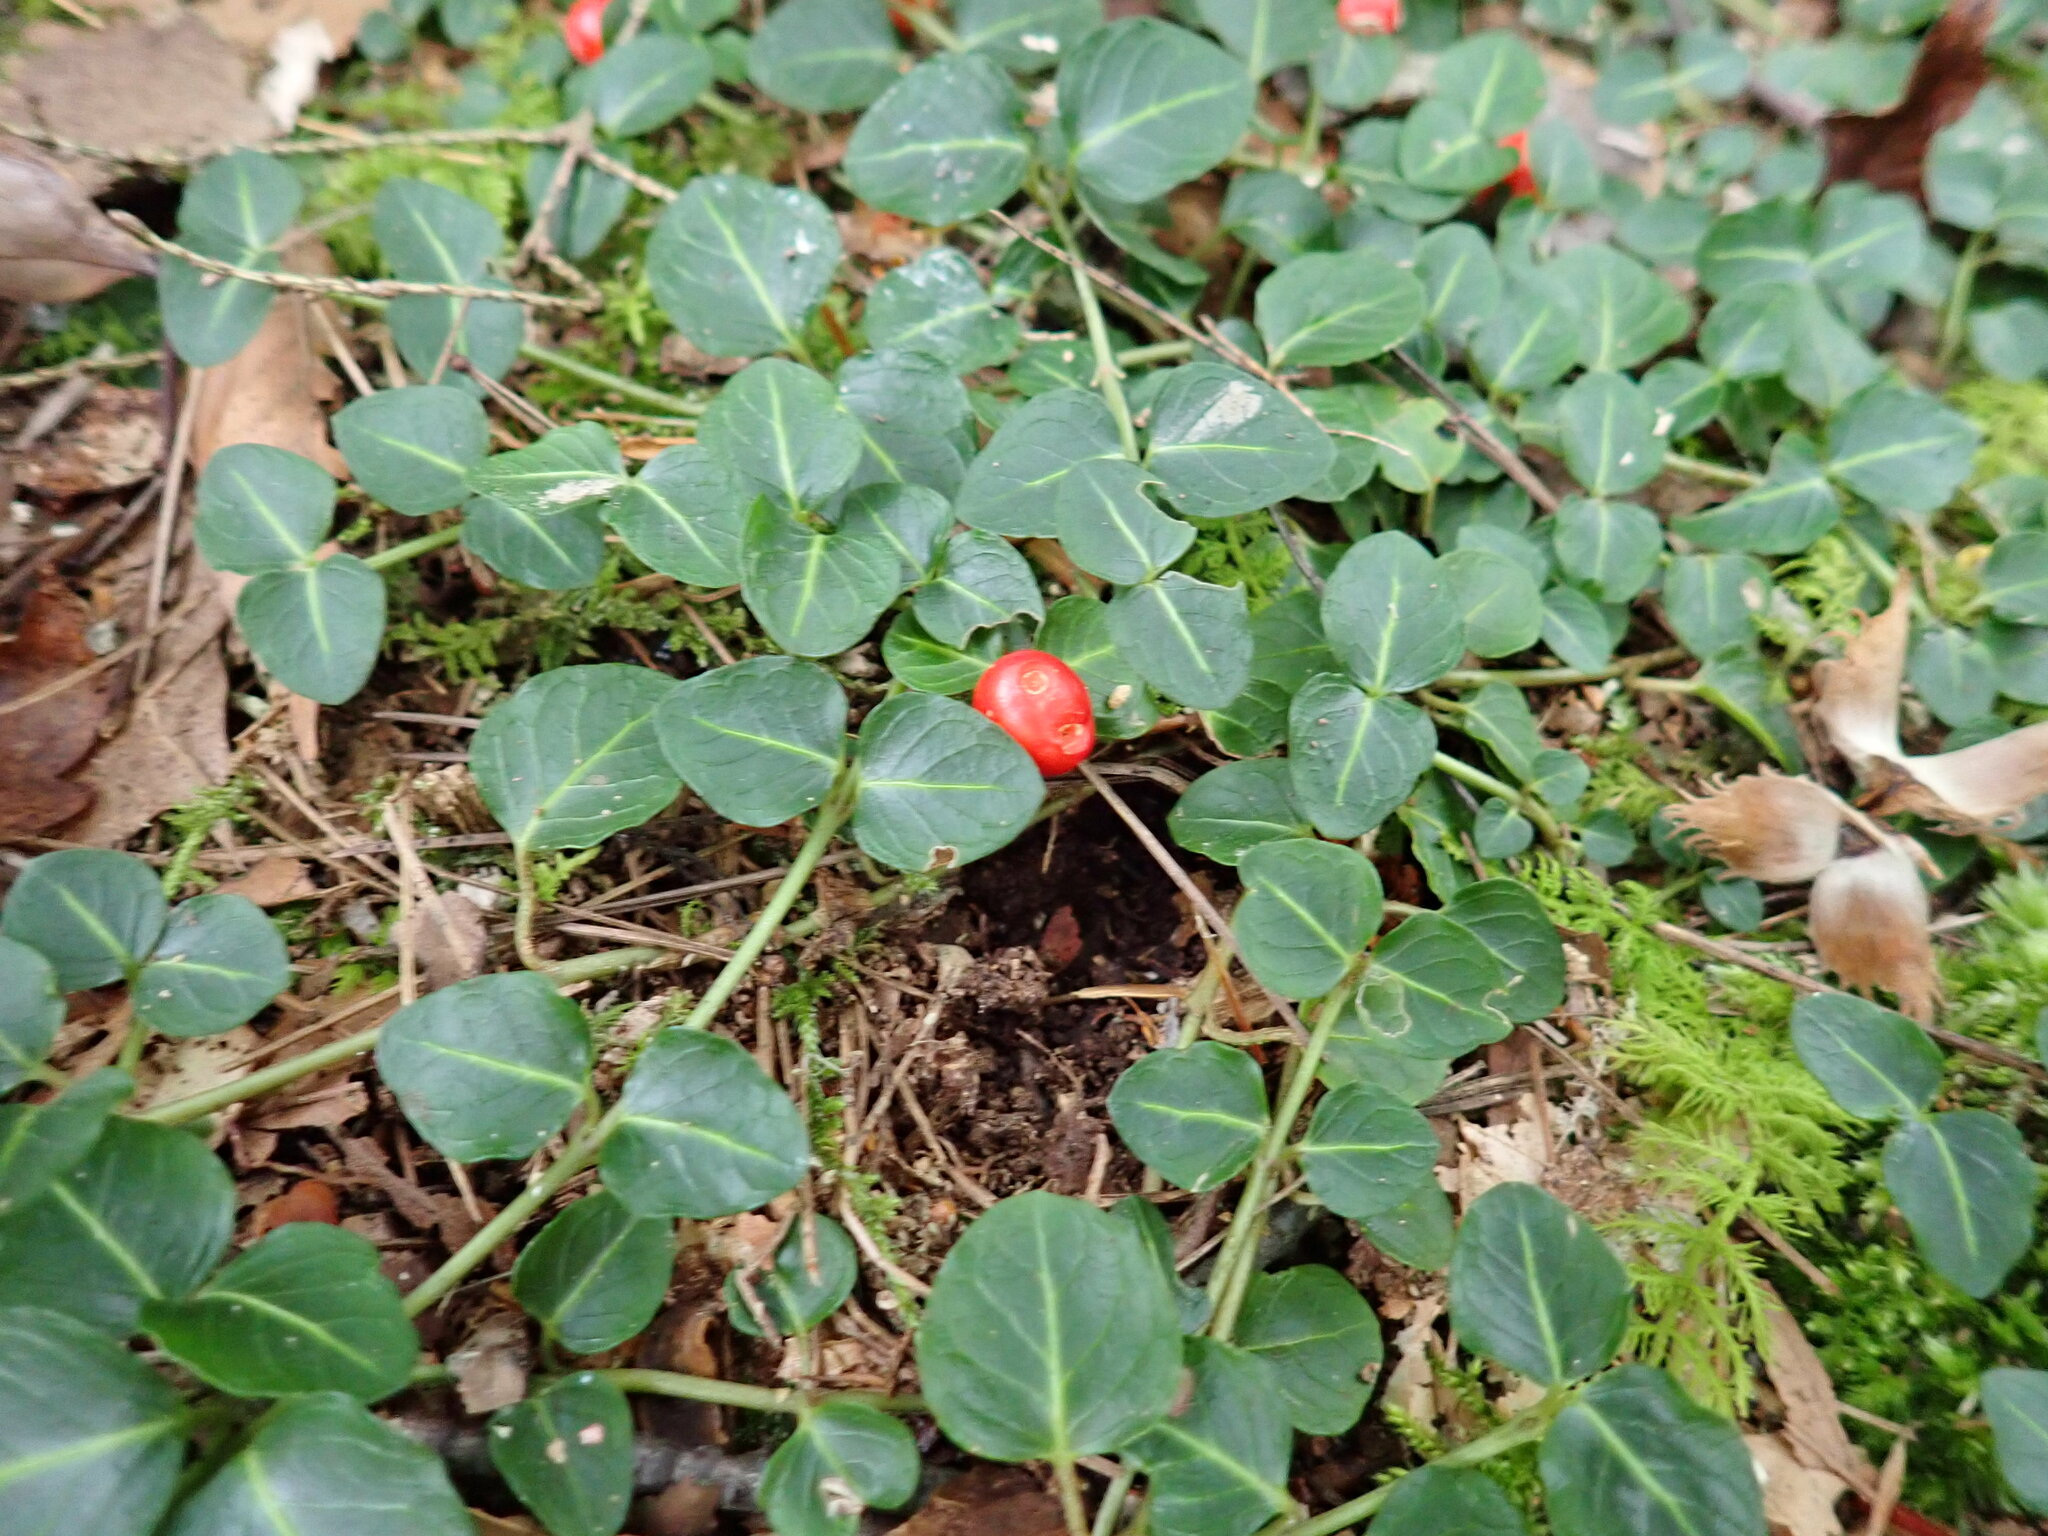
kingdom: Plantae
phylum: Tracheophyta
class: Magnoliopsida
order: Gentianales
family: Rubiaceae
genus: Mitchella
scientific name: Mitchella repens
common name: Partridge-berry
